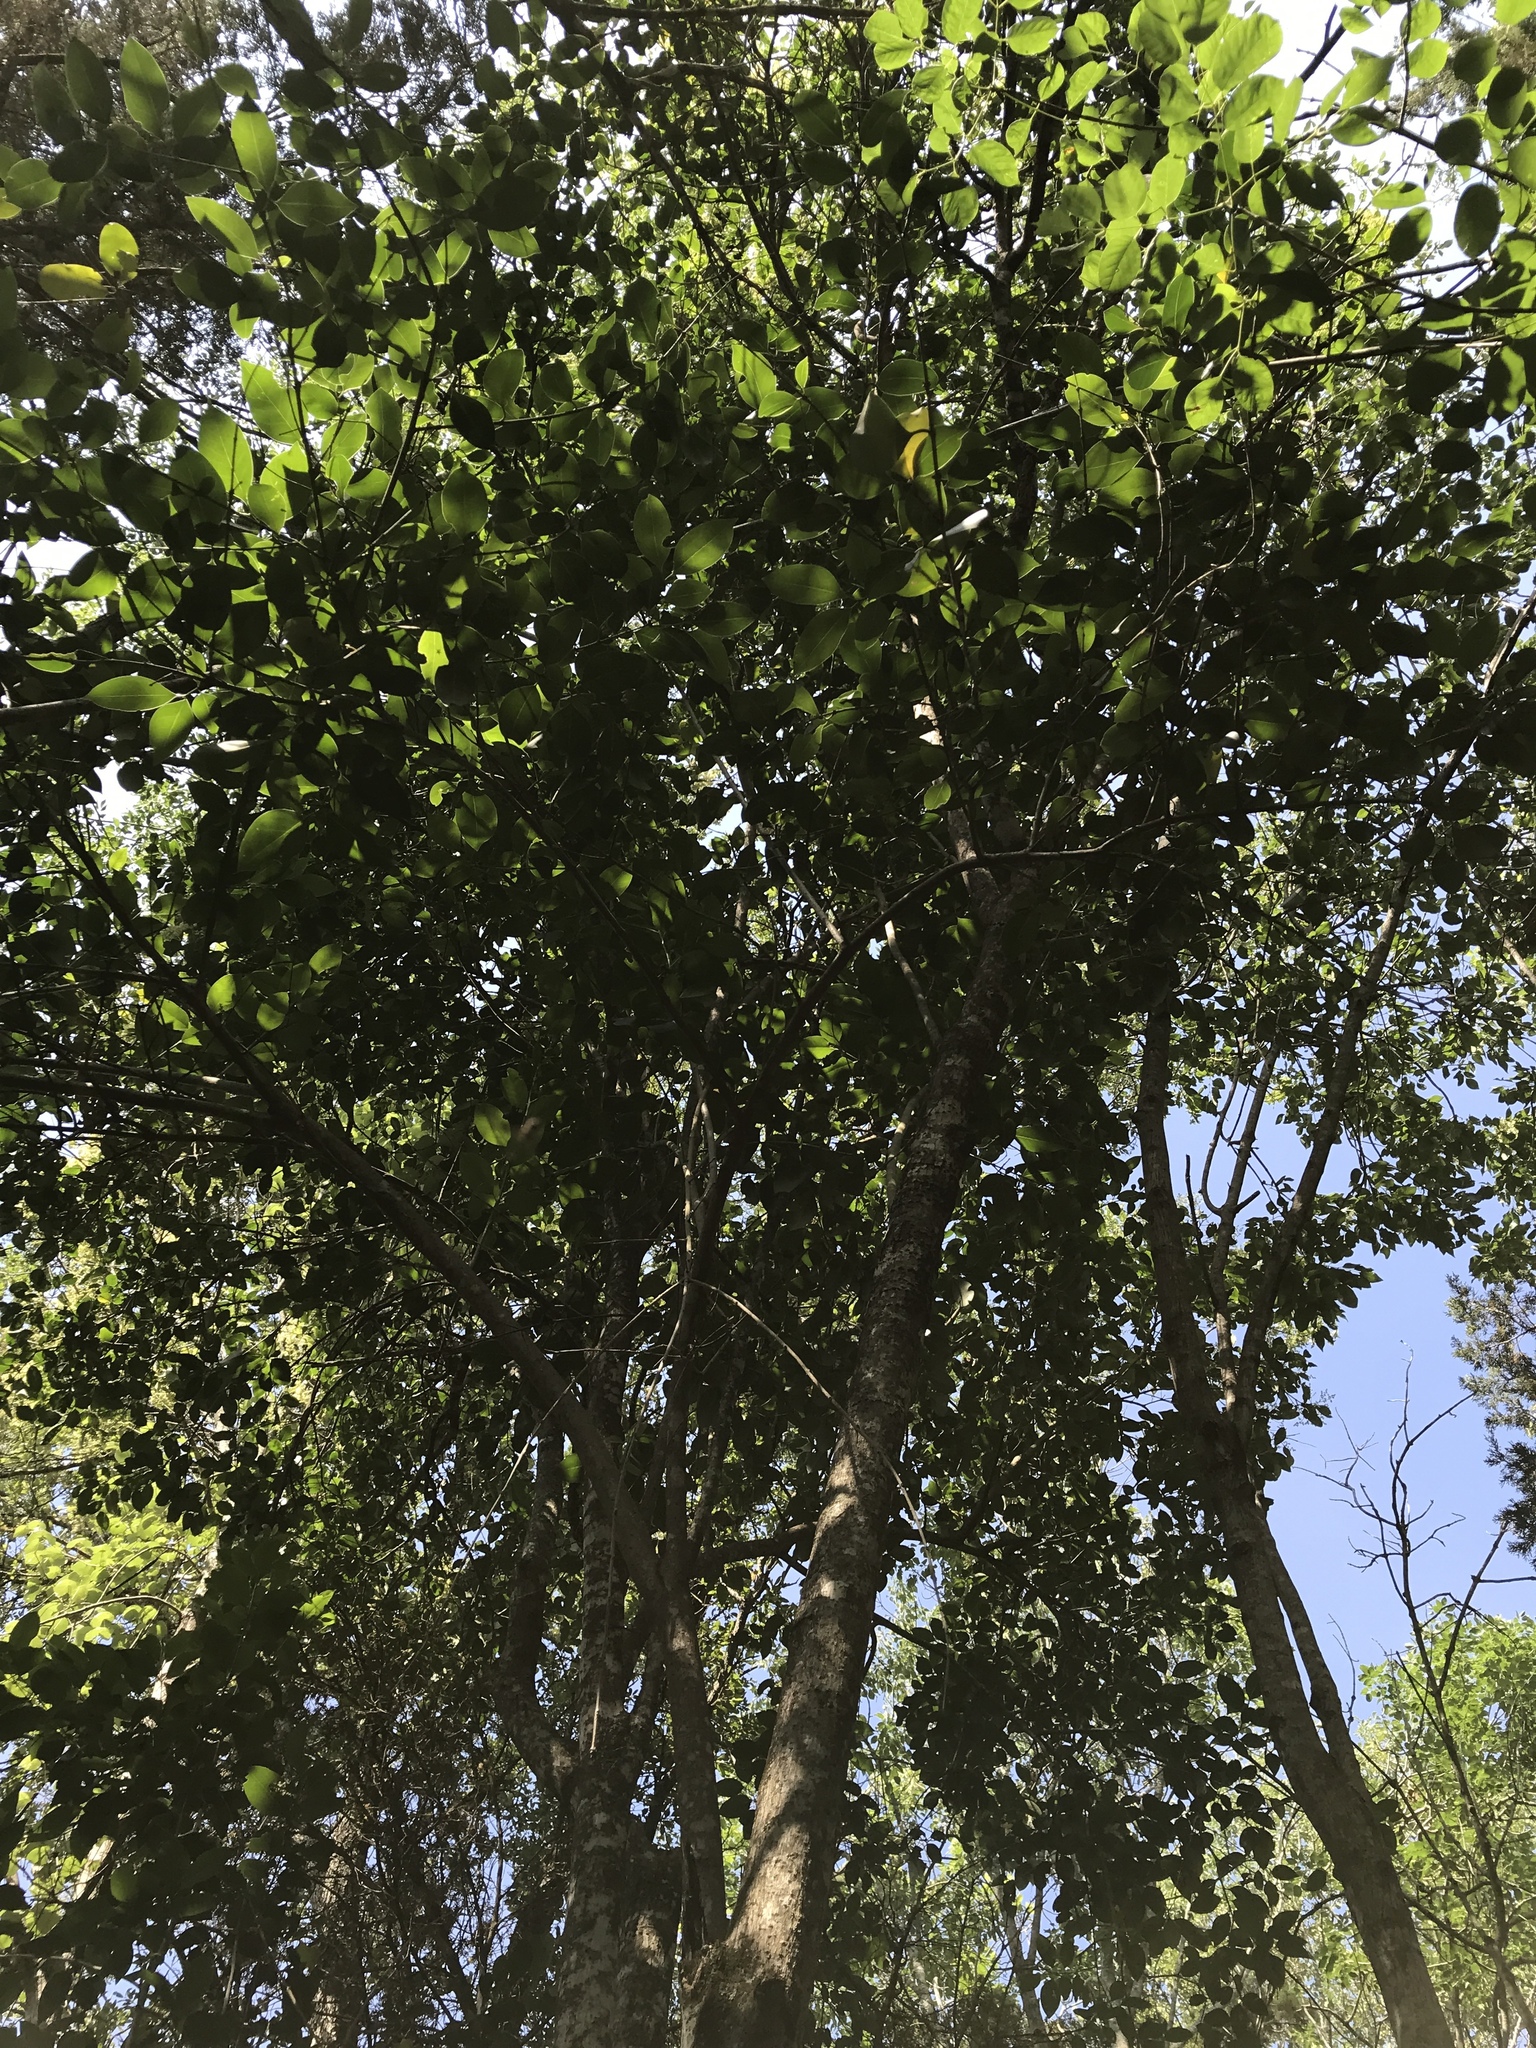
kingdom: Plantae
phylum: Tracheophyta
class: Magnoliopsida
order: Lamiales
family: Oleaceae
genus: Ligustrum
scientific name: Ligustrum lucidum
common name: Glossy privet
